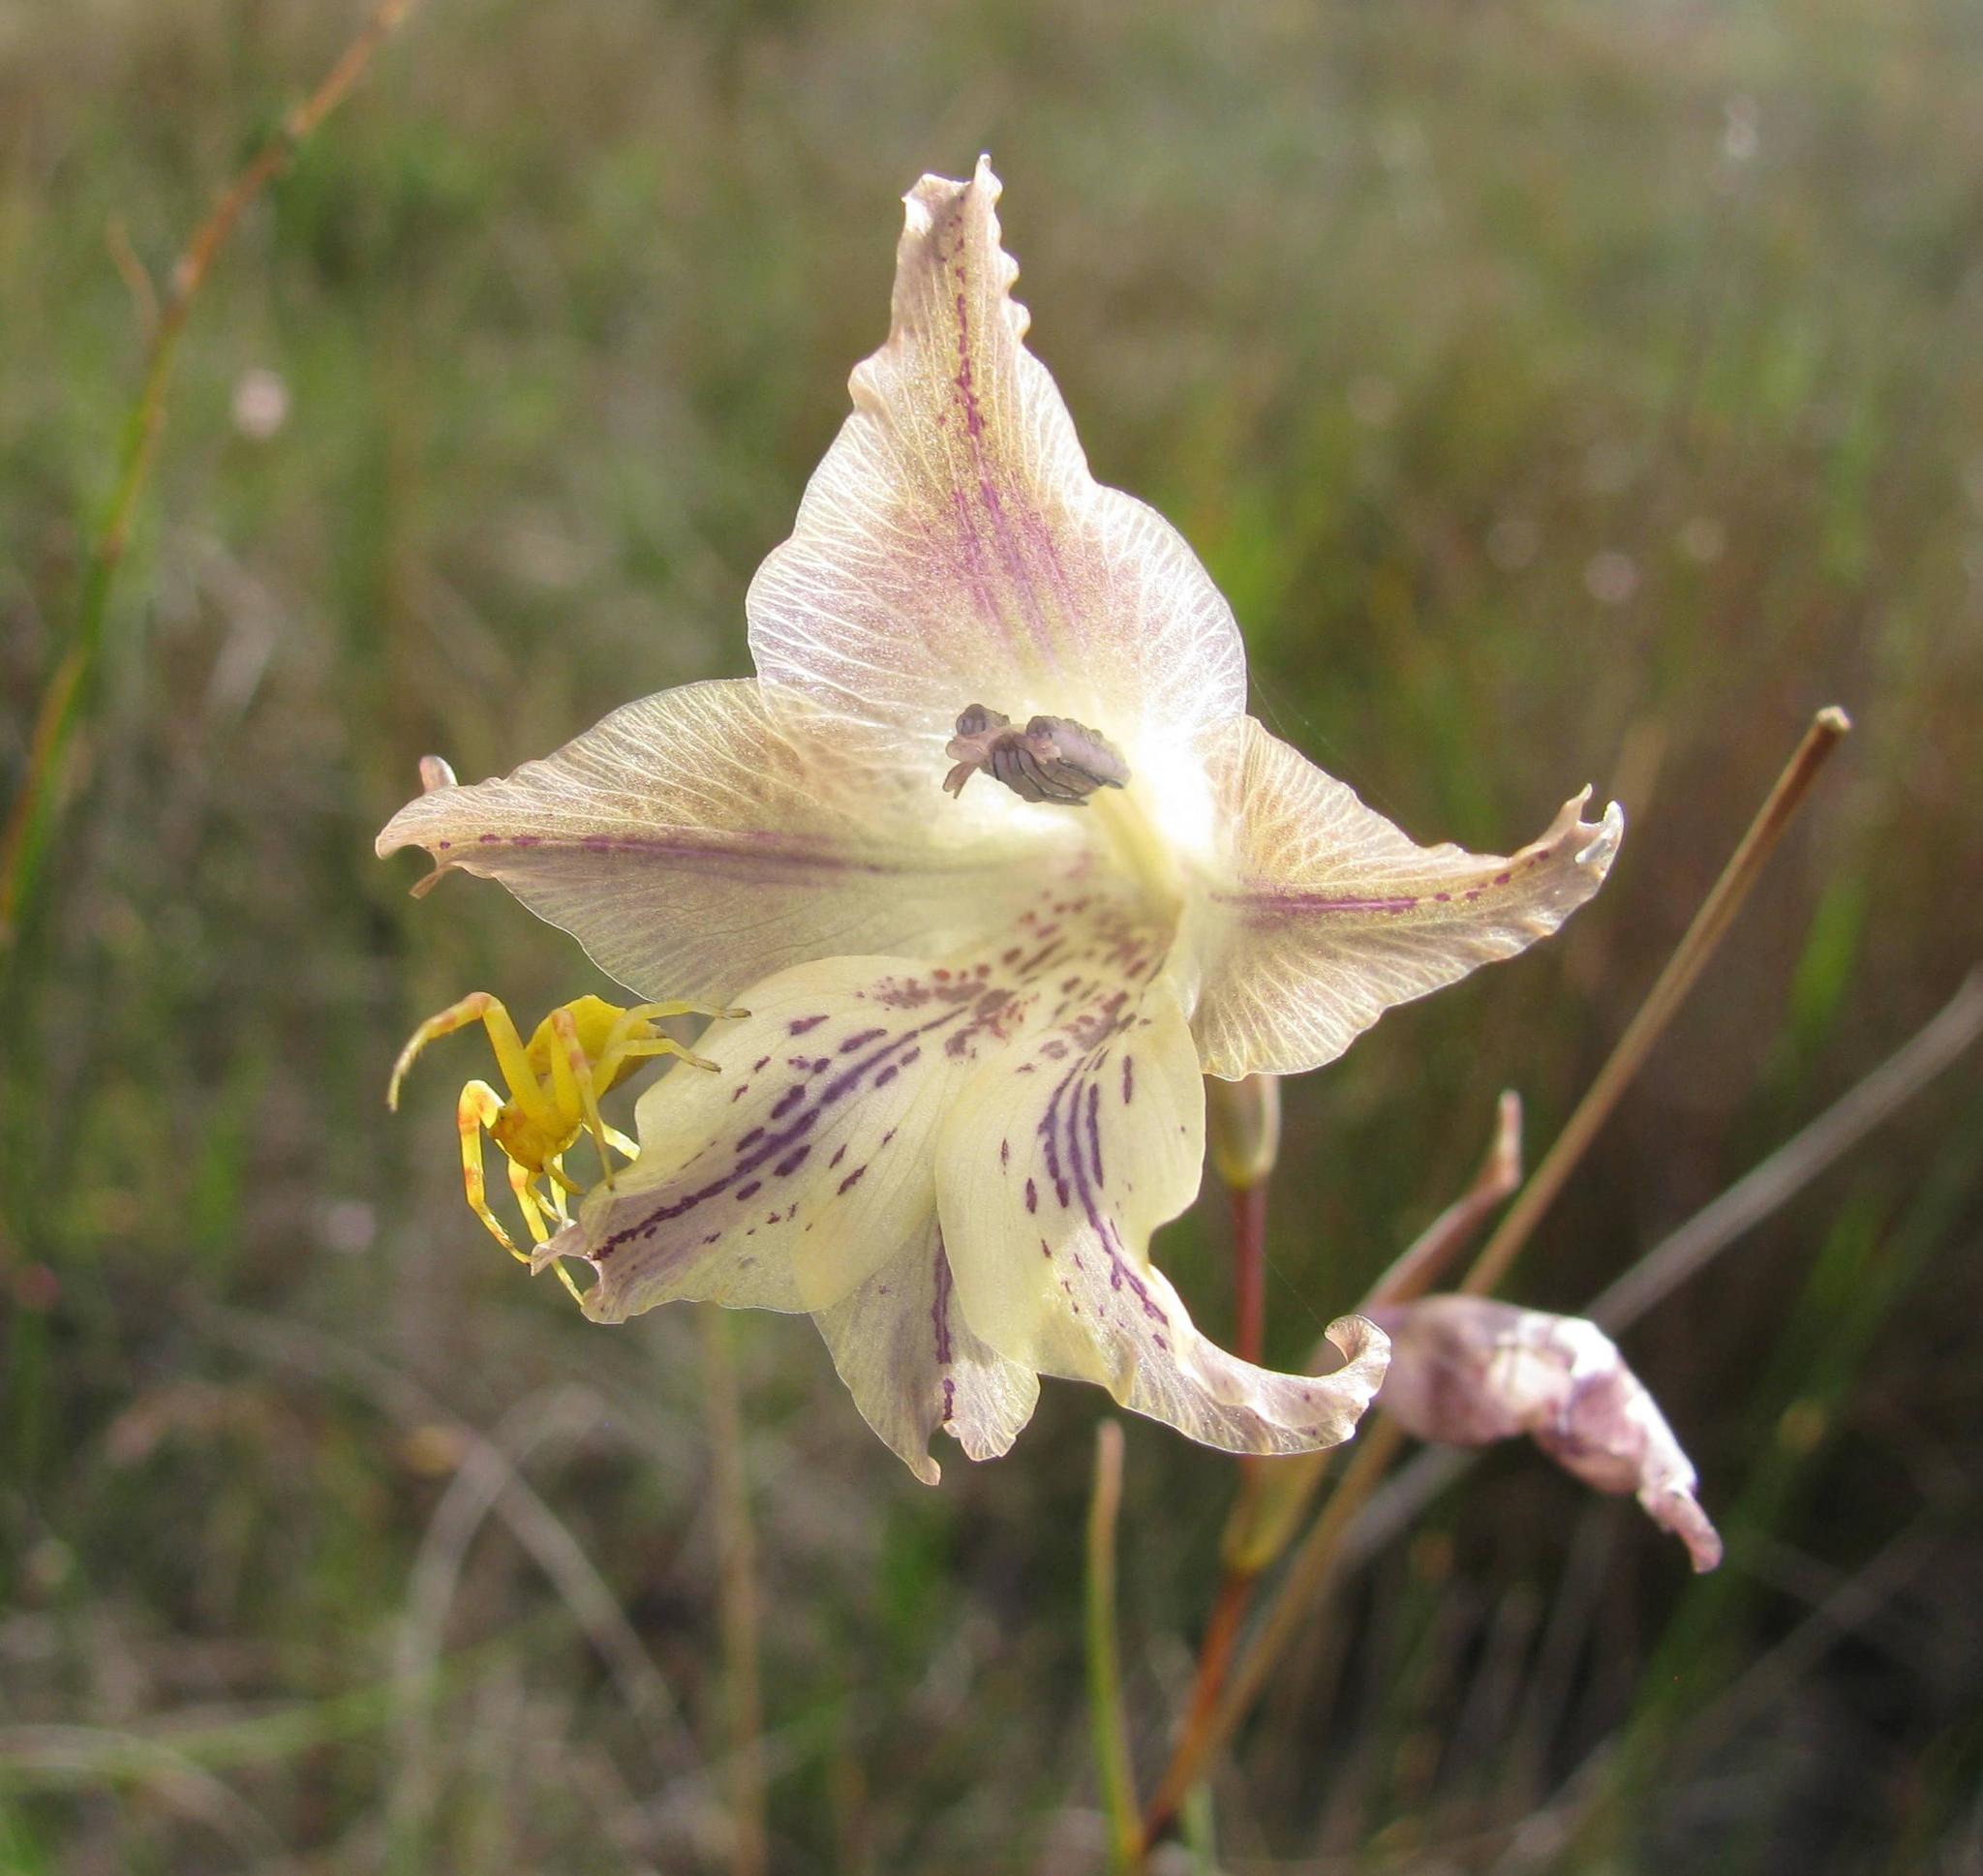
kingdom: Plantae
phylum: Tracheophyta
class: Liliopsida
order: Asparagales
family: Iridaceae
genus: Gladiolus
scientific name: Gladiolus recurvus
